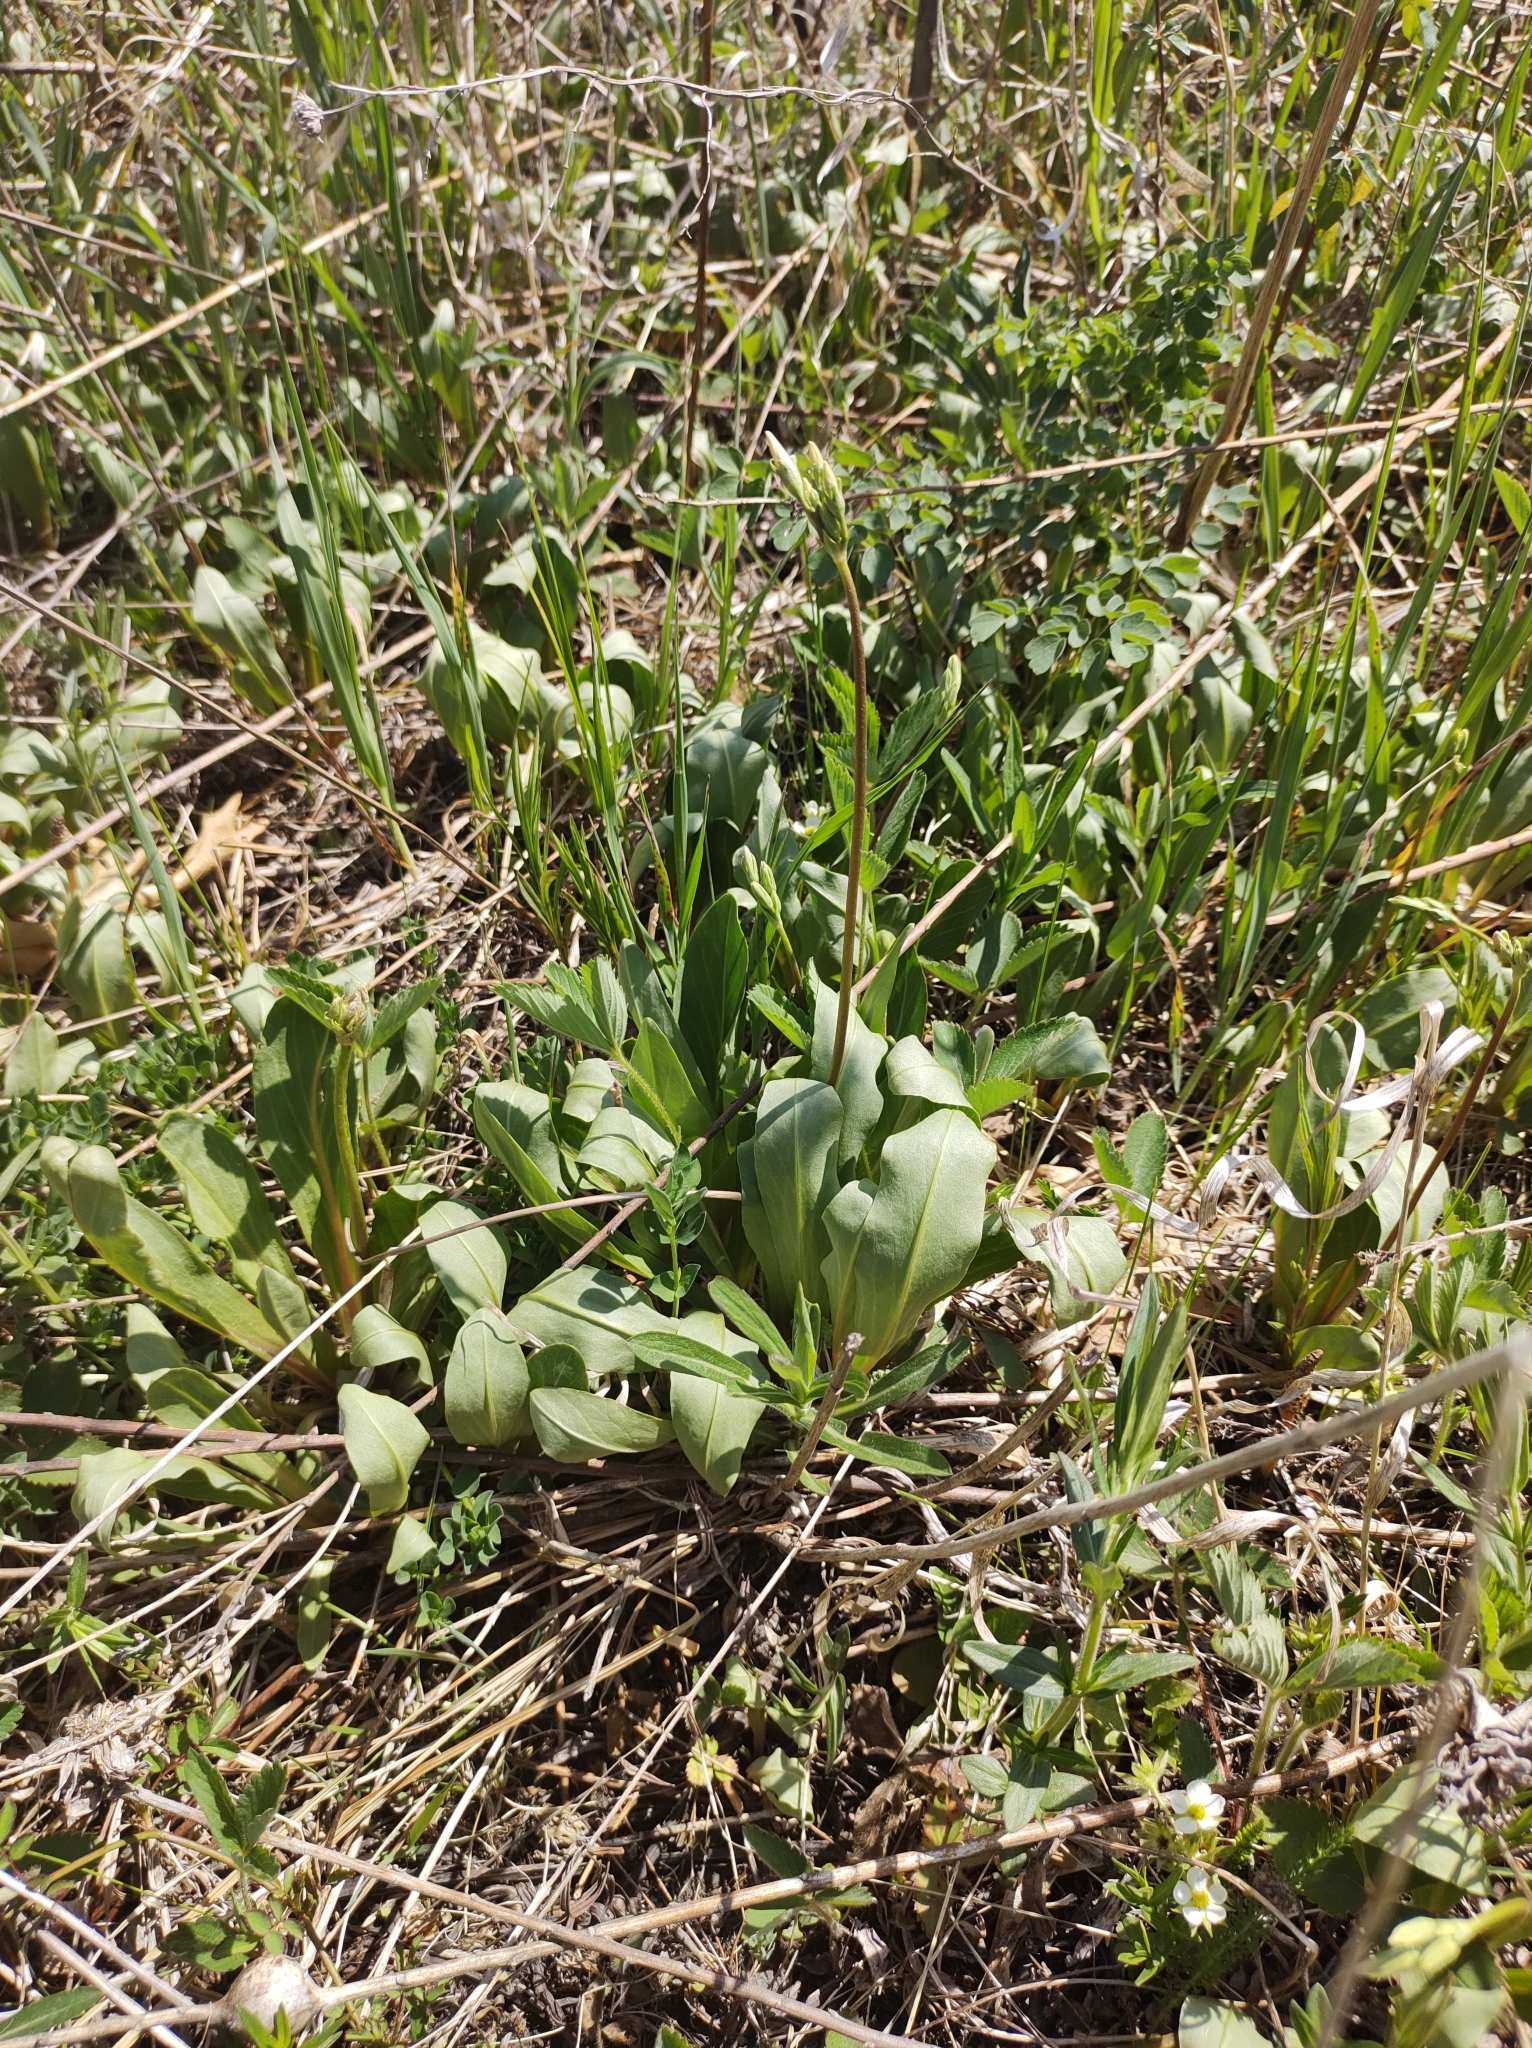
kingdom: Plantae
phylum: Tracheophyta
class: Magnoliopsida
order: Ericales
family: Primulaceae
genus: Dodecatheon
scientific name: Dodecatheon meadia
